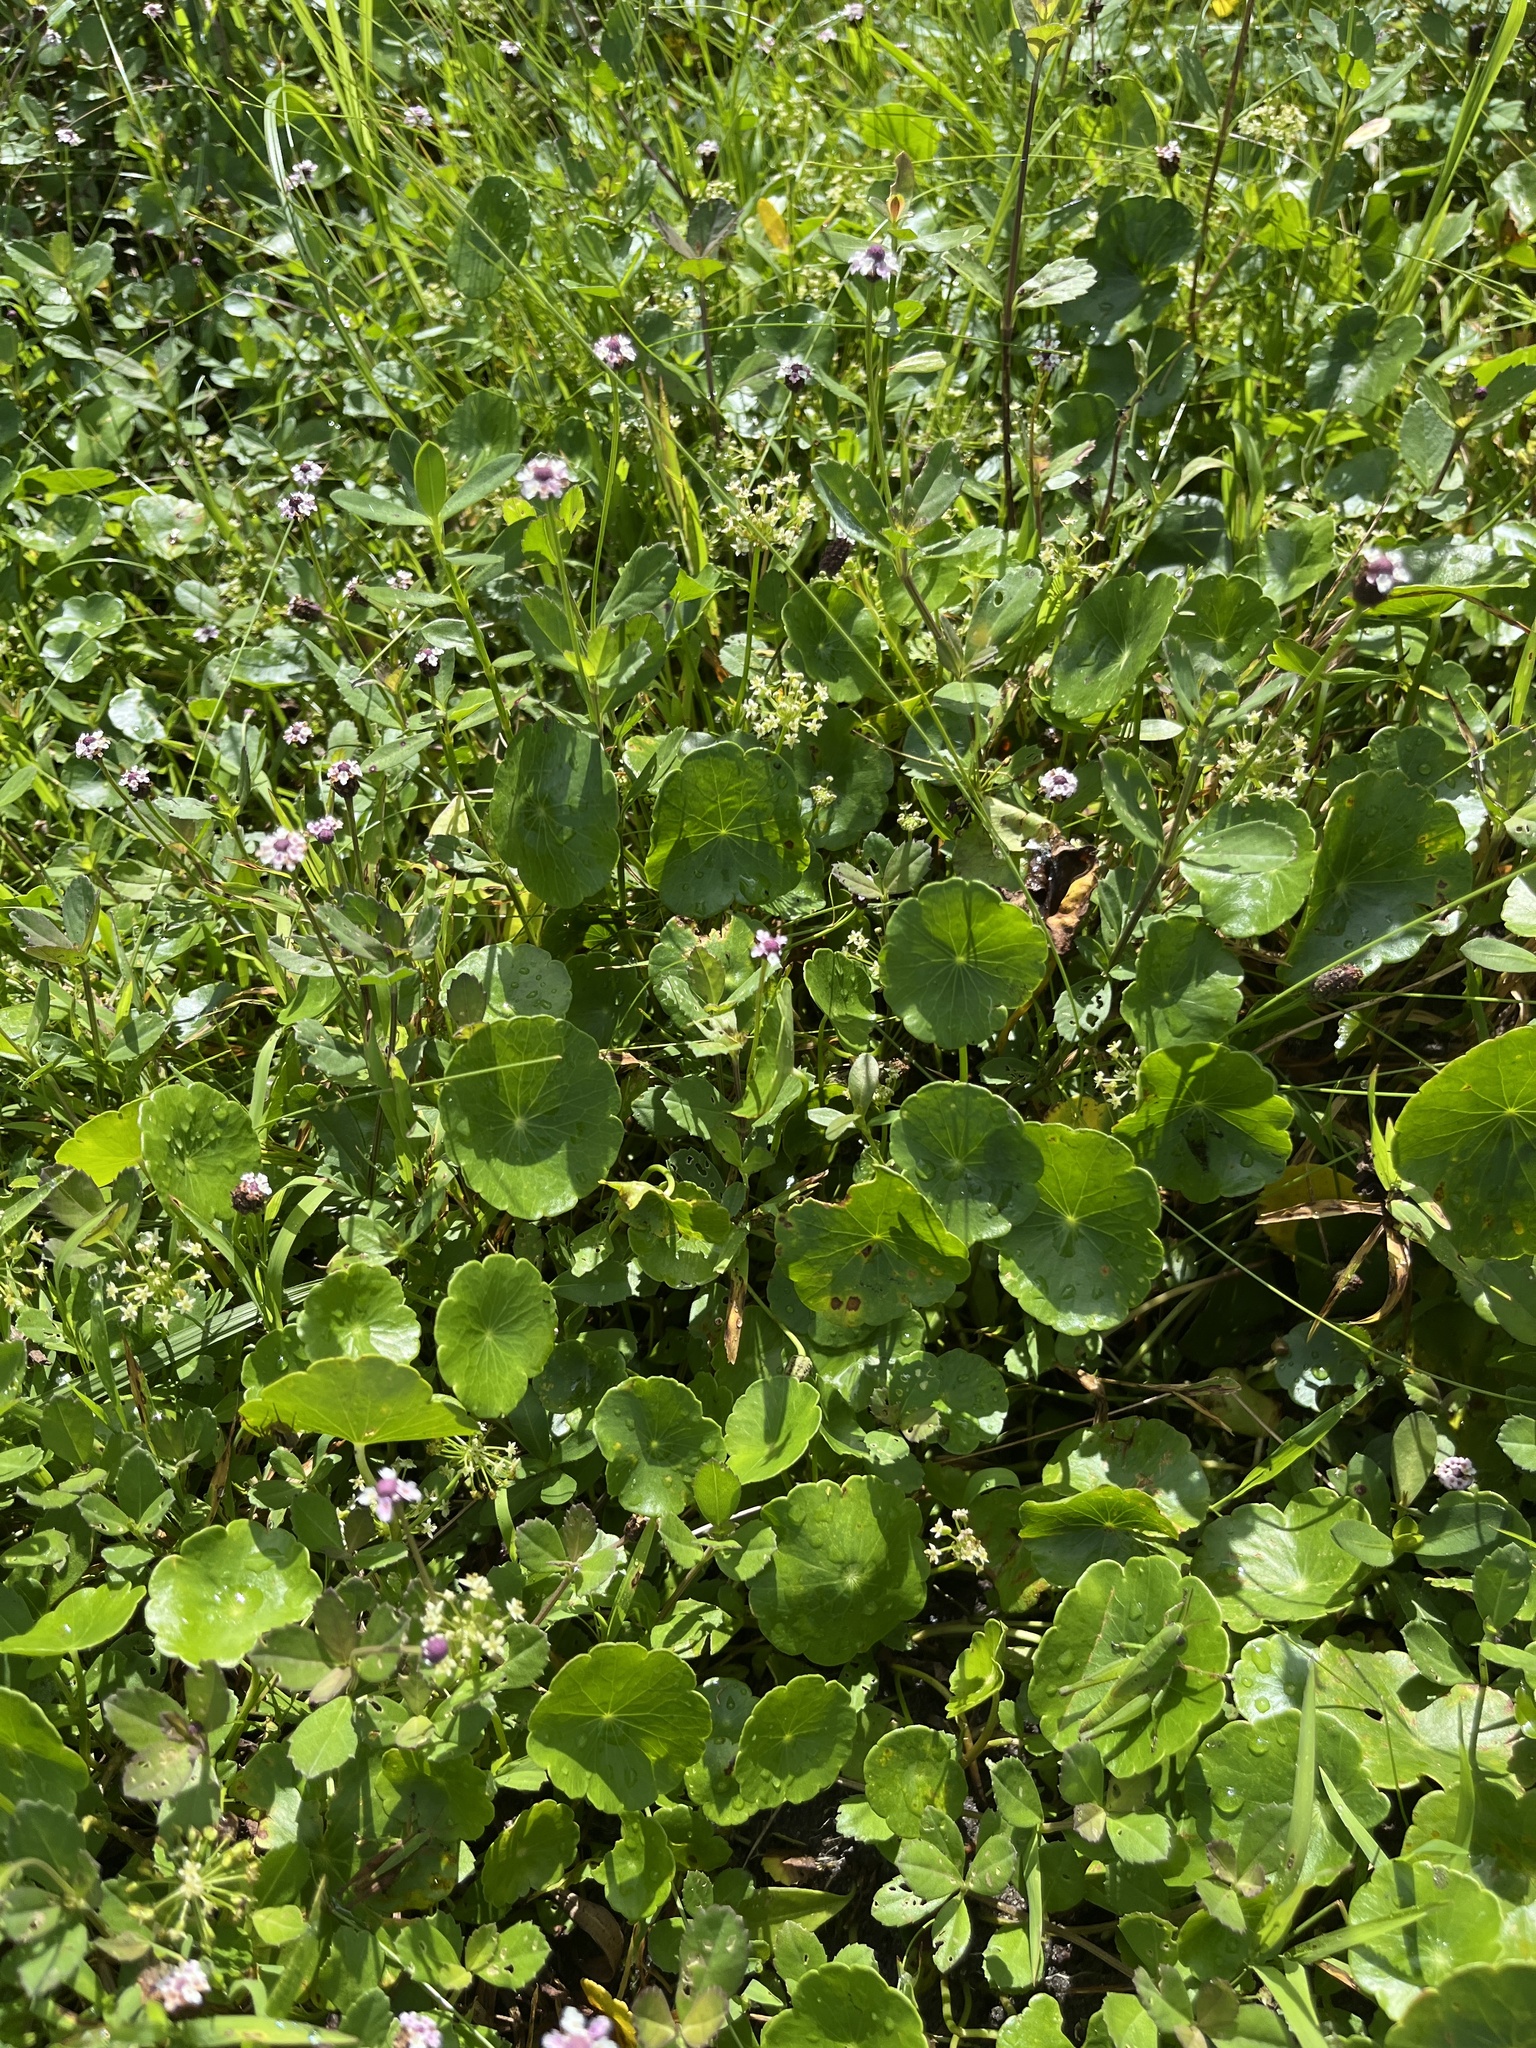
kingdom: Plantae
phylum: Tracheophyta
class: Magnoliopsida
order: Apiales
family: Araliaceae
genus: Hydrocotyle
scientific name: Hydrocotyle umbellata
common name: Water pennywort
